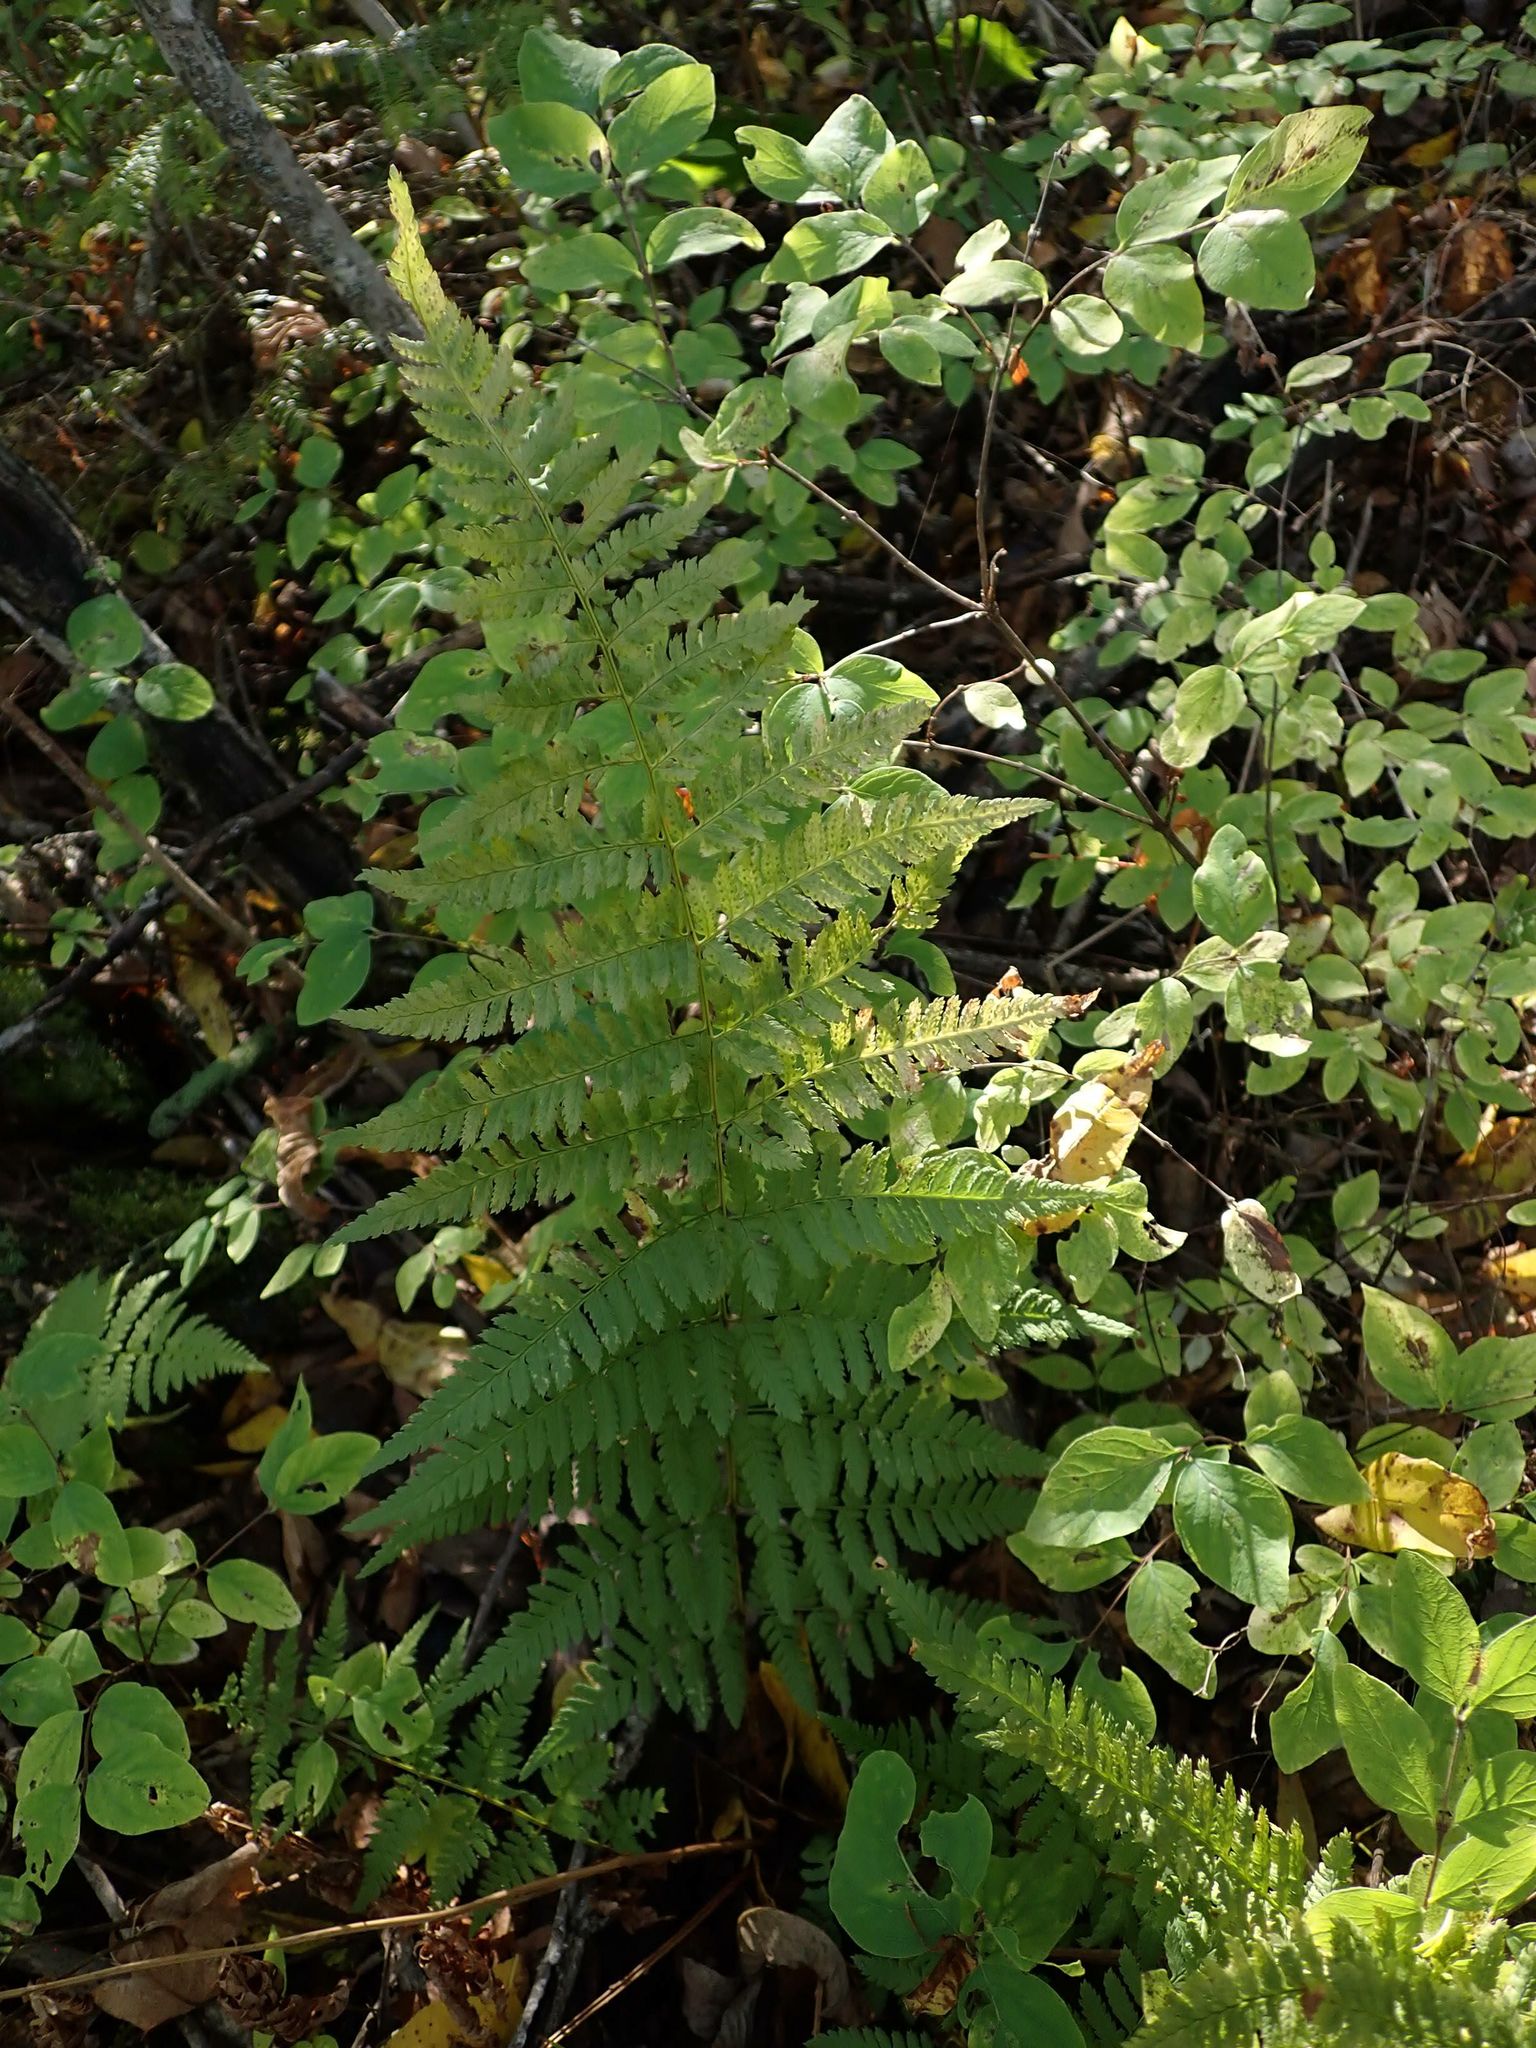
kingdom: Plantae
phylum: Tracheophyta
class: Polypodiopsida
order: Polypodiales
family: Dryopteridaceae
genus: Dryopteris
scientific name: Dryopteris carthusiana
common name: Narrow buckler-fern
